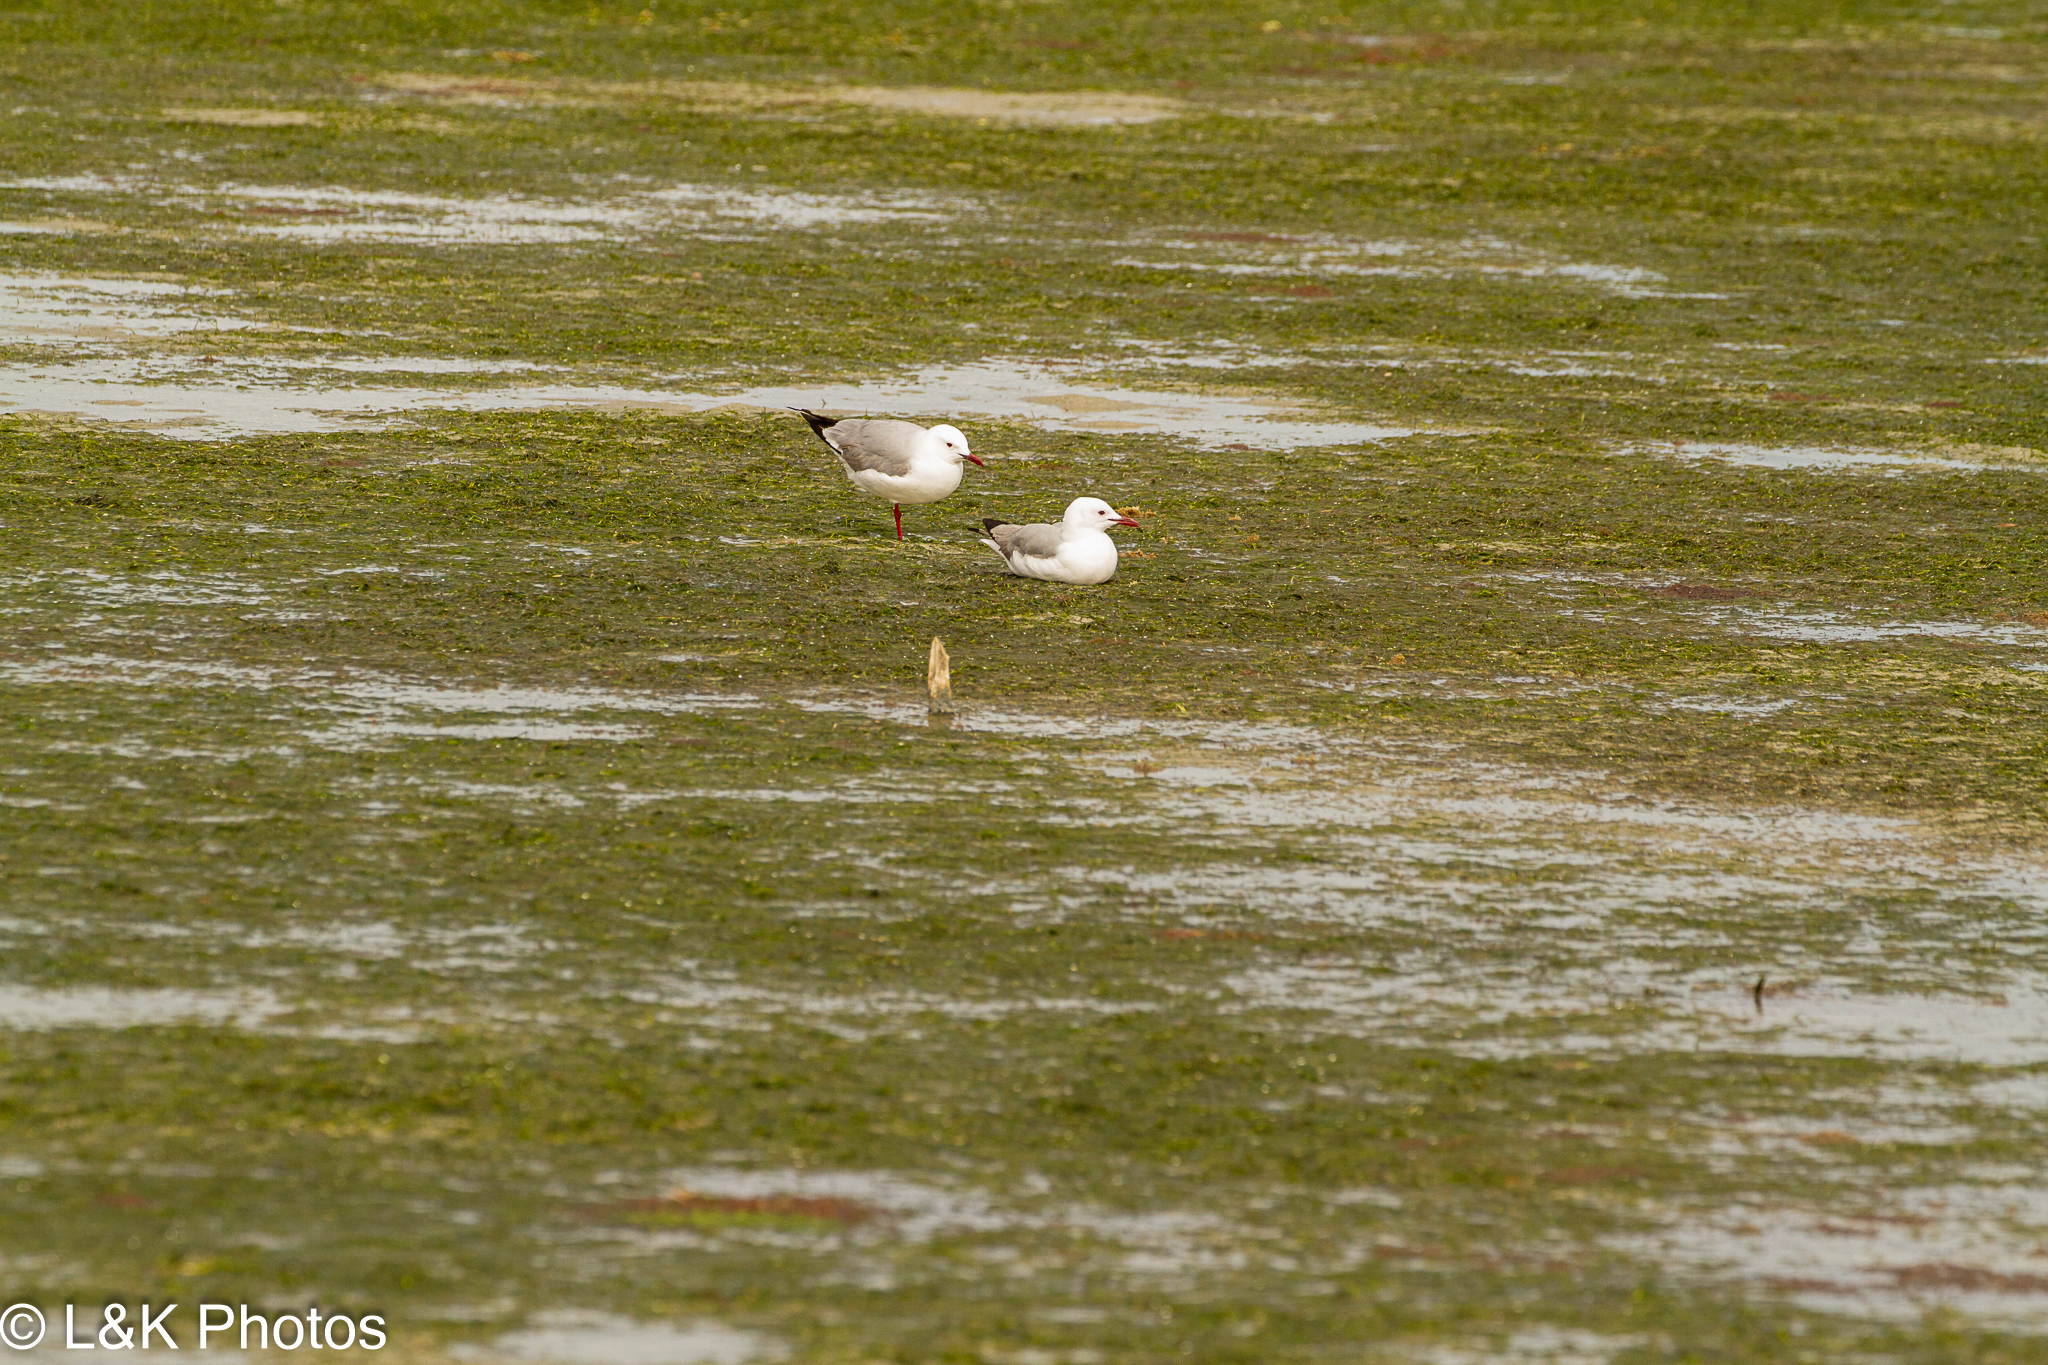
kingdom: Animalia
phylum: Chordata
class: Aves
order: Charadriiformes
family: Laridae
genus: Chroicocephalus
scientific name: Chroicocephalus hartlaubii
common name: Hartlaub's gull
